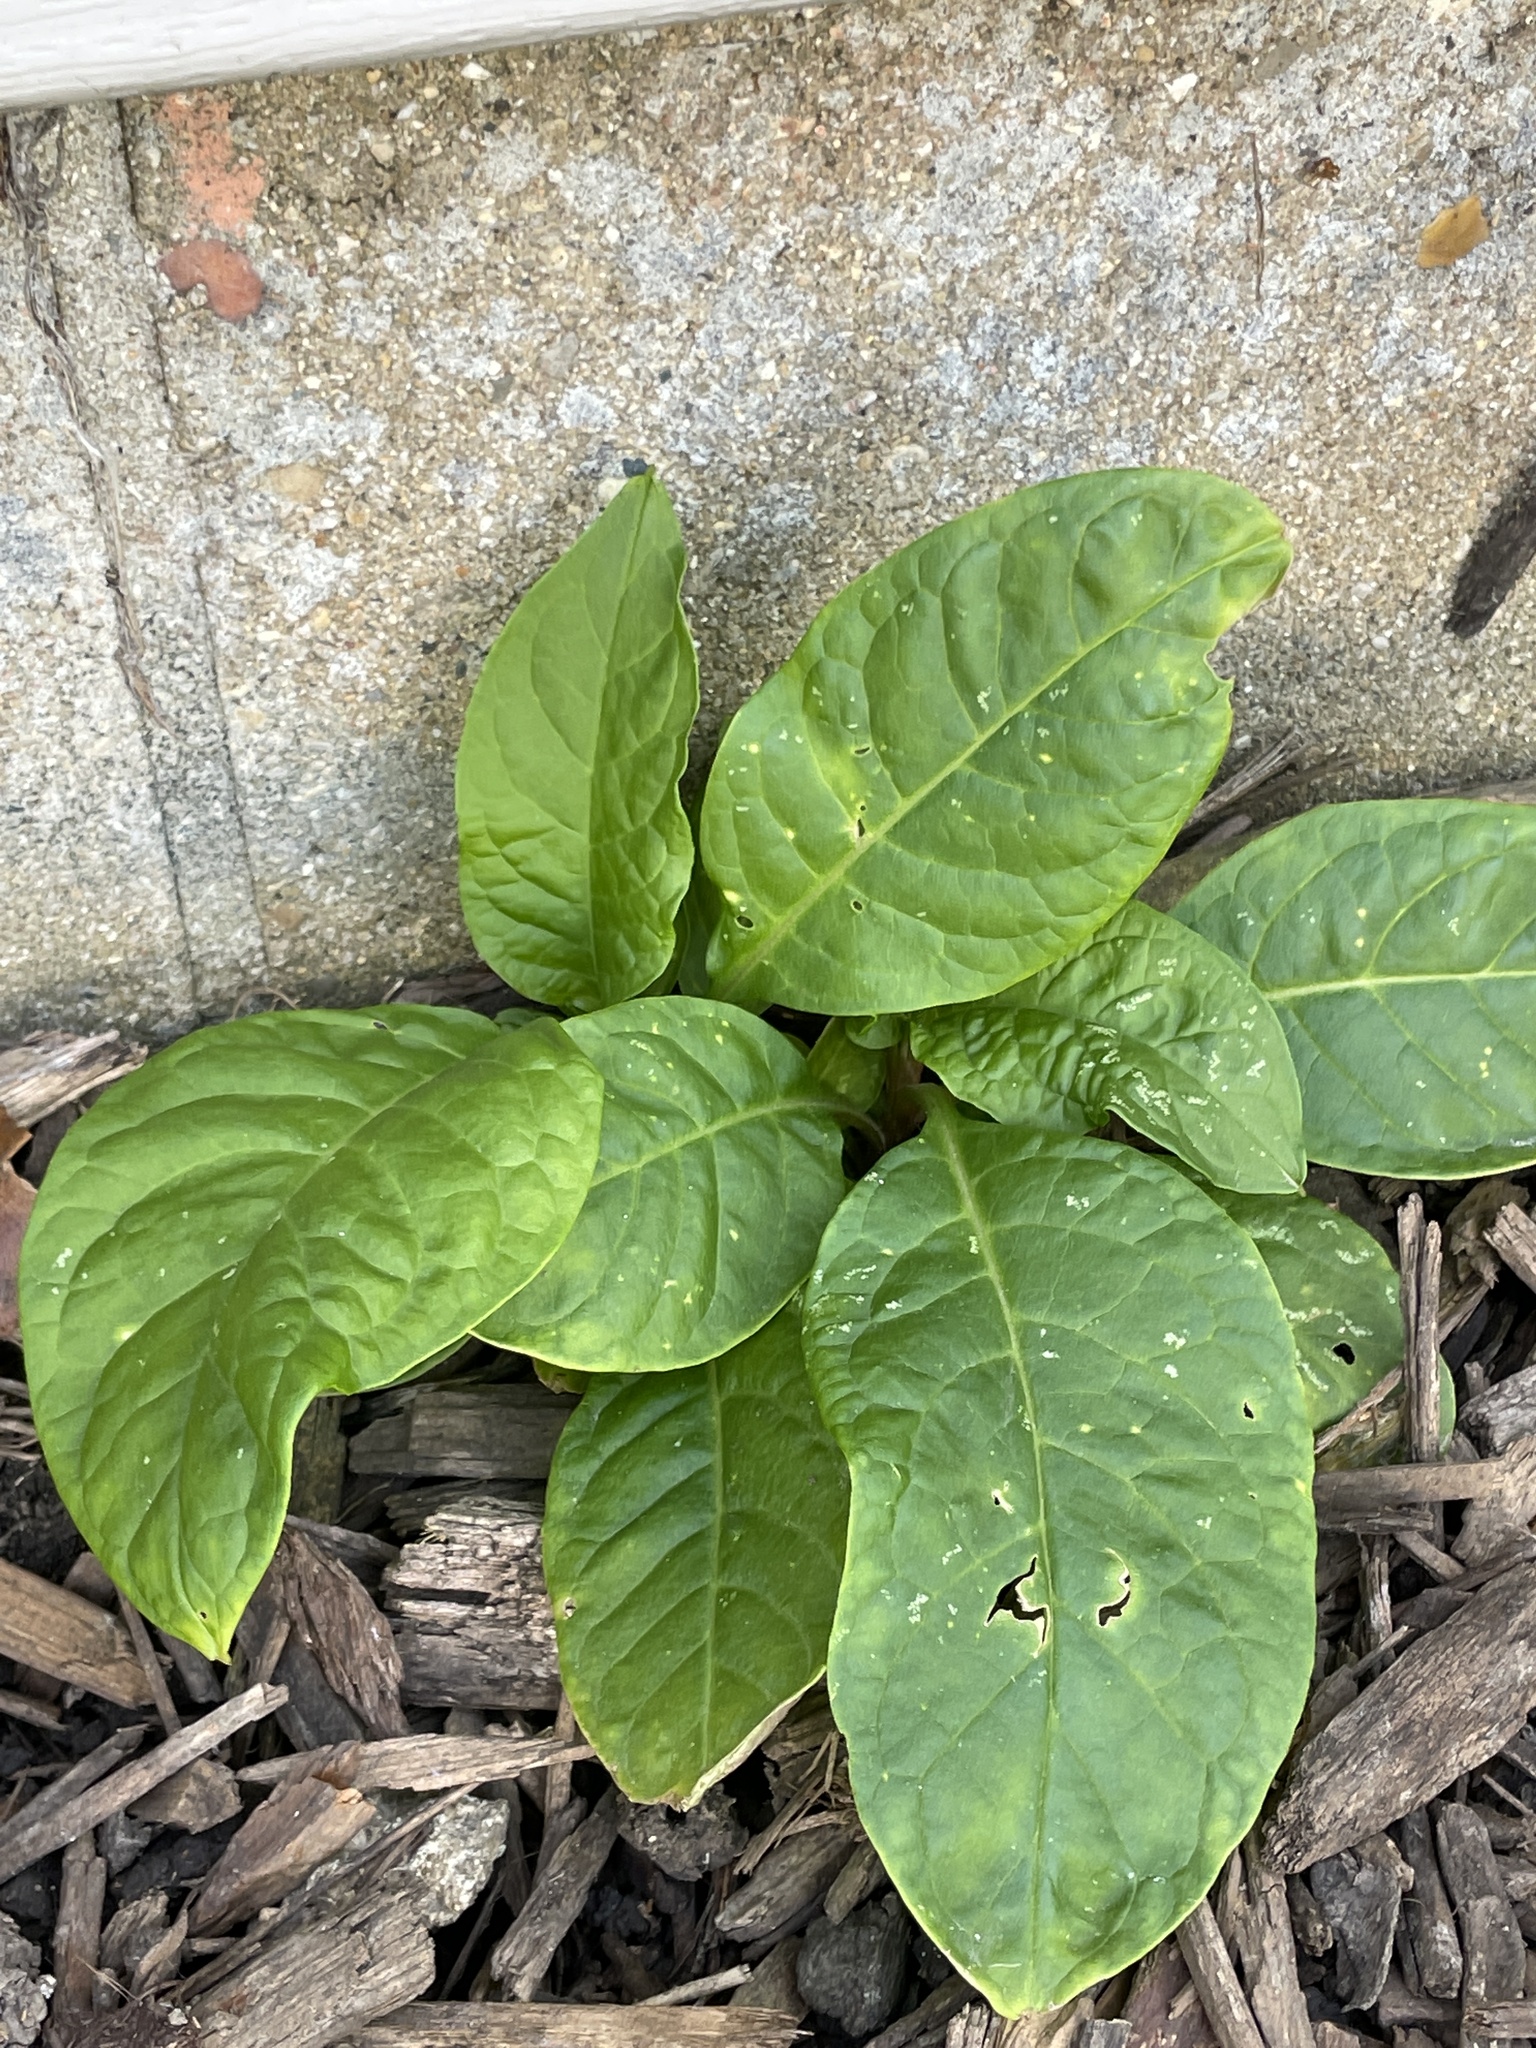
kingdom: Plantae
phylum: Tracheophyta
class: Magnoliopsida
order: Caryophyllales
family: Phytolaccaceae
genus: Phytolacca
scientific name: Phytolacca americana
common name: American pokeweed
